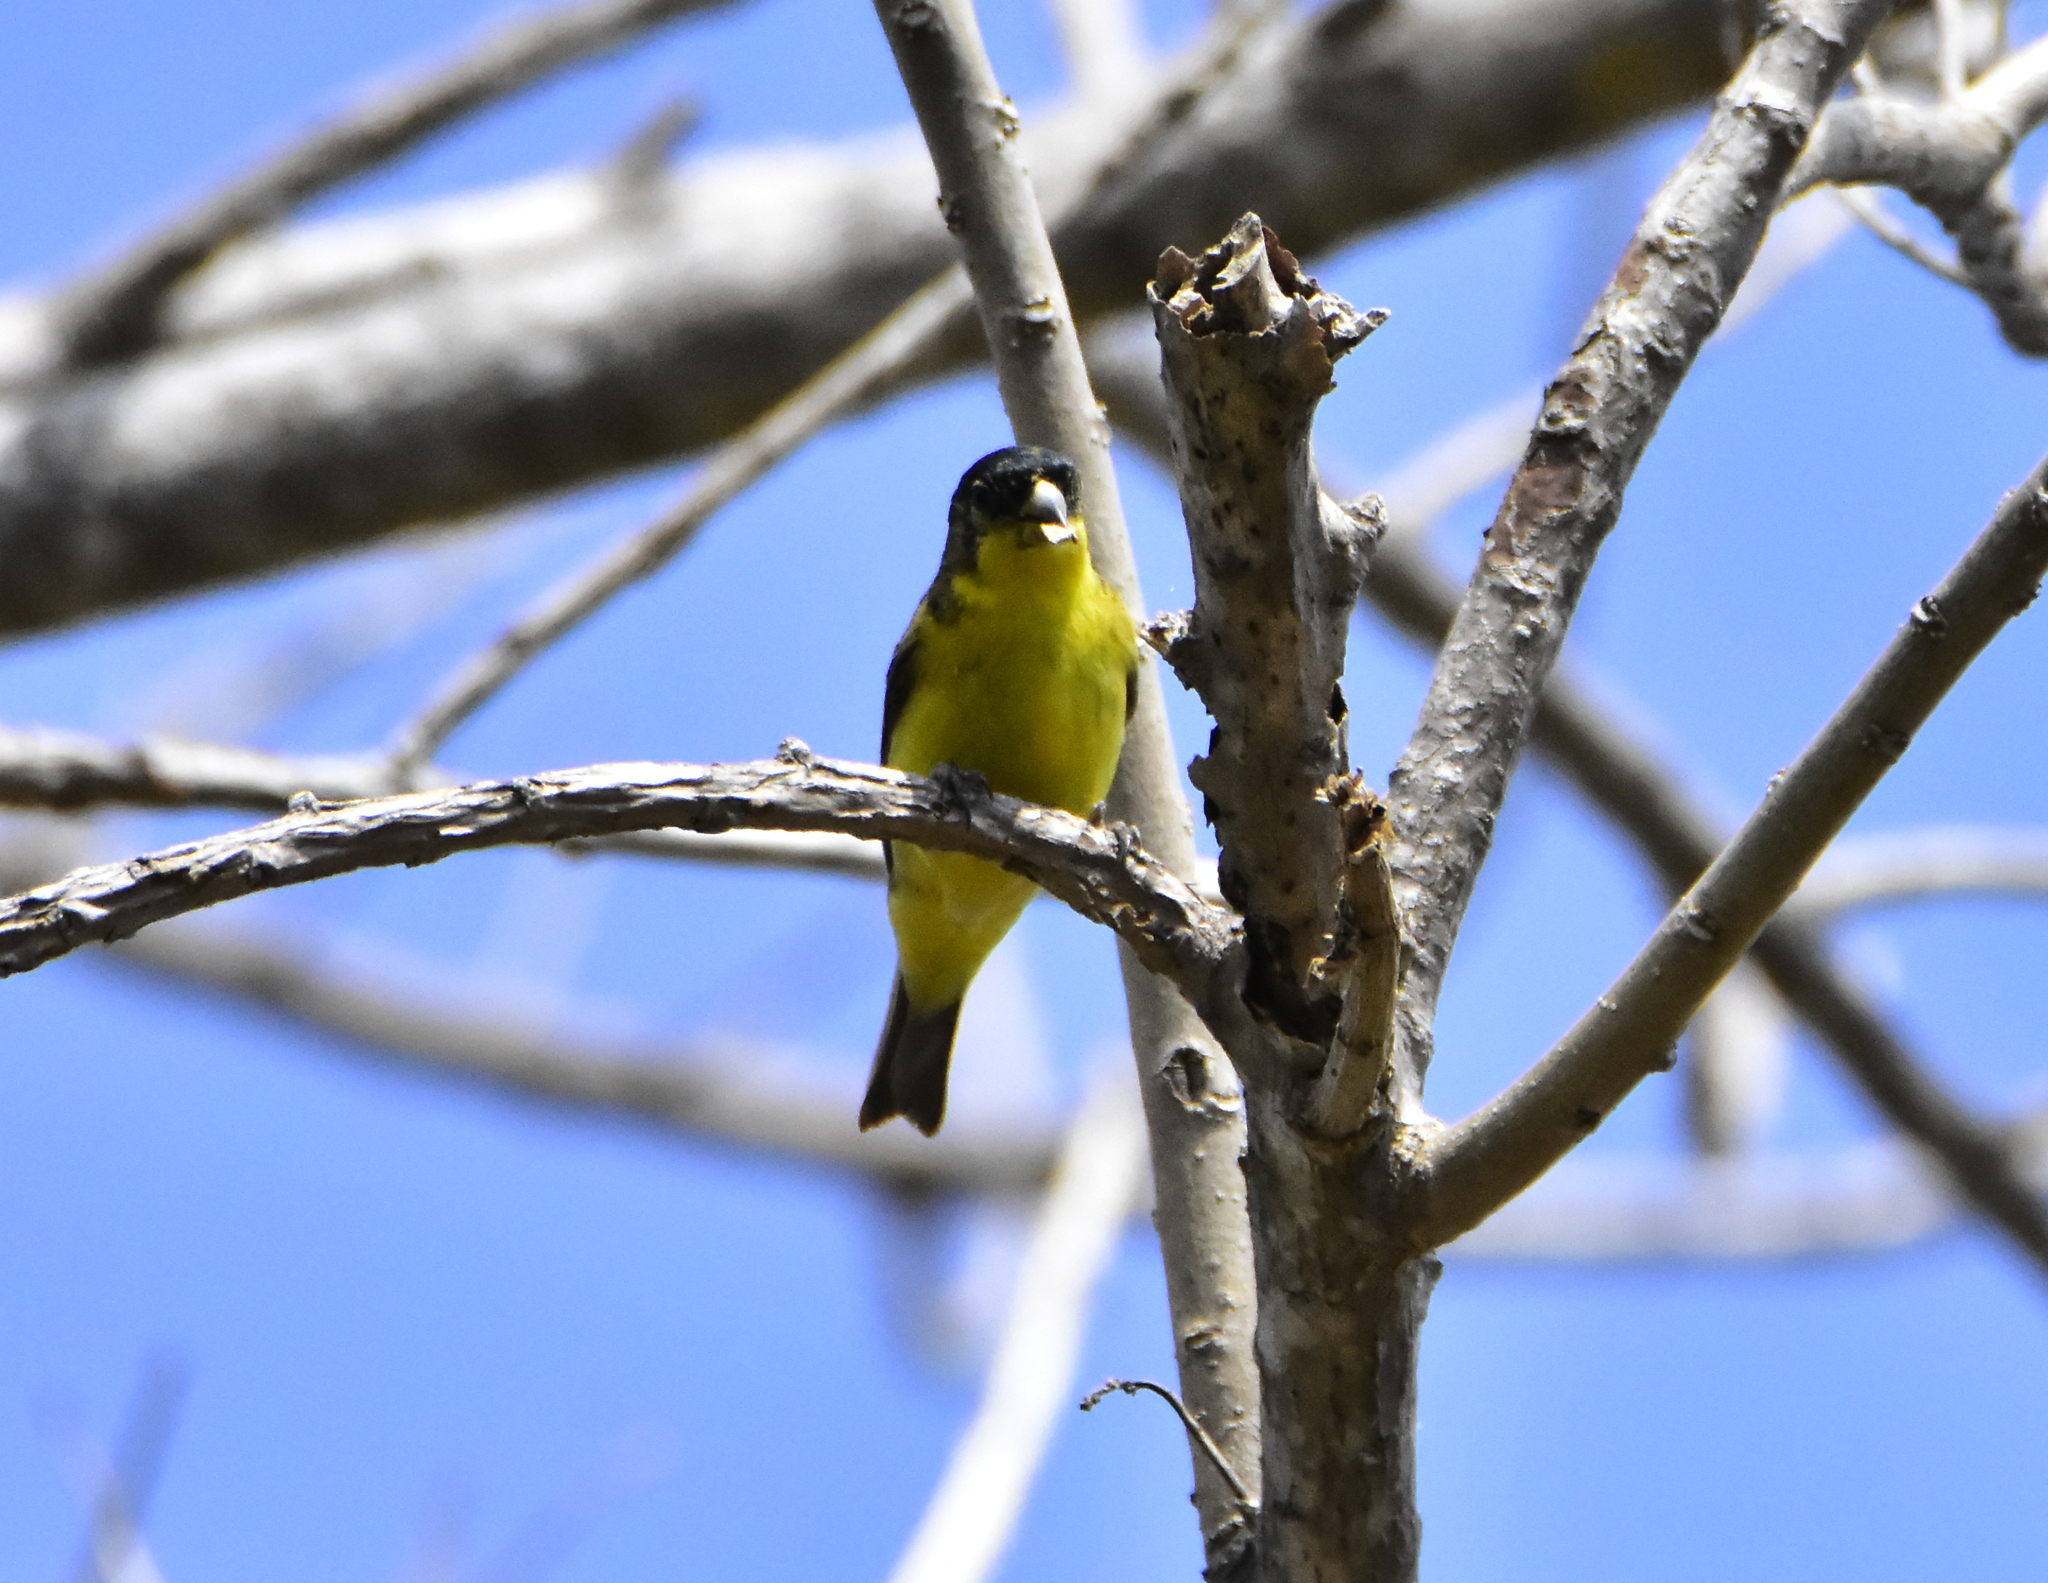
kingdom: Animalia
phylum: Chordata
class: Aves
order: Passeriformes
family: Fringillidae
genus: Spinus
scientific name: Spinus psaltria
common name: Lesser goldfinch
